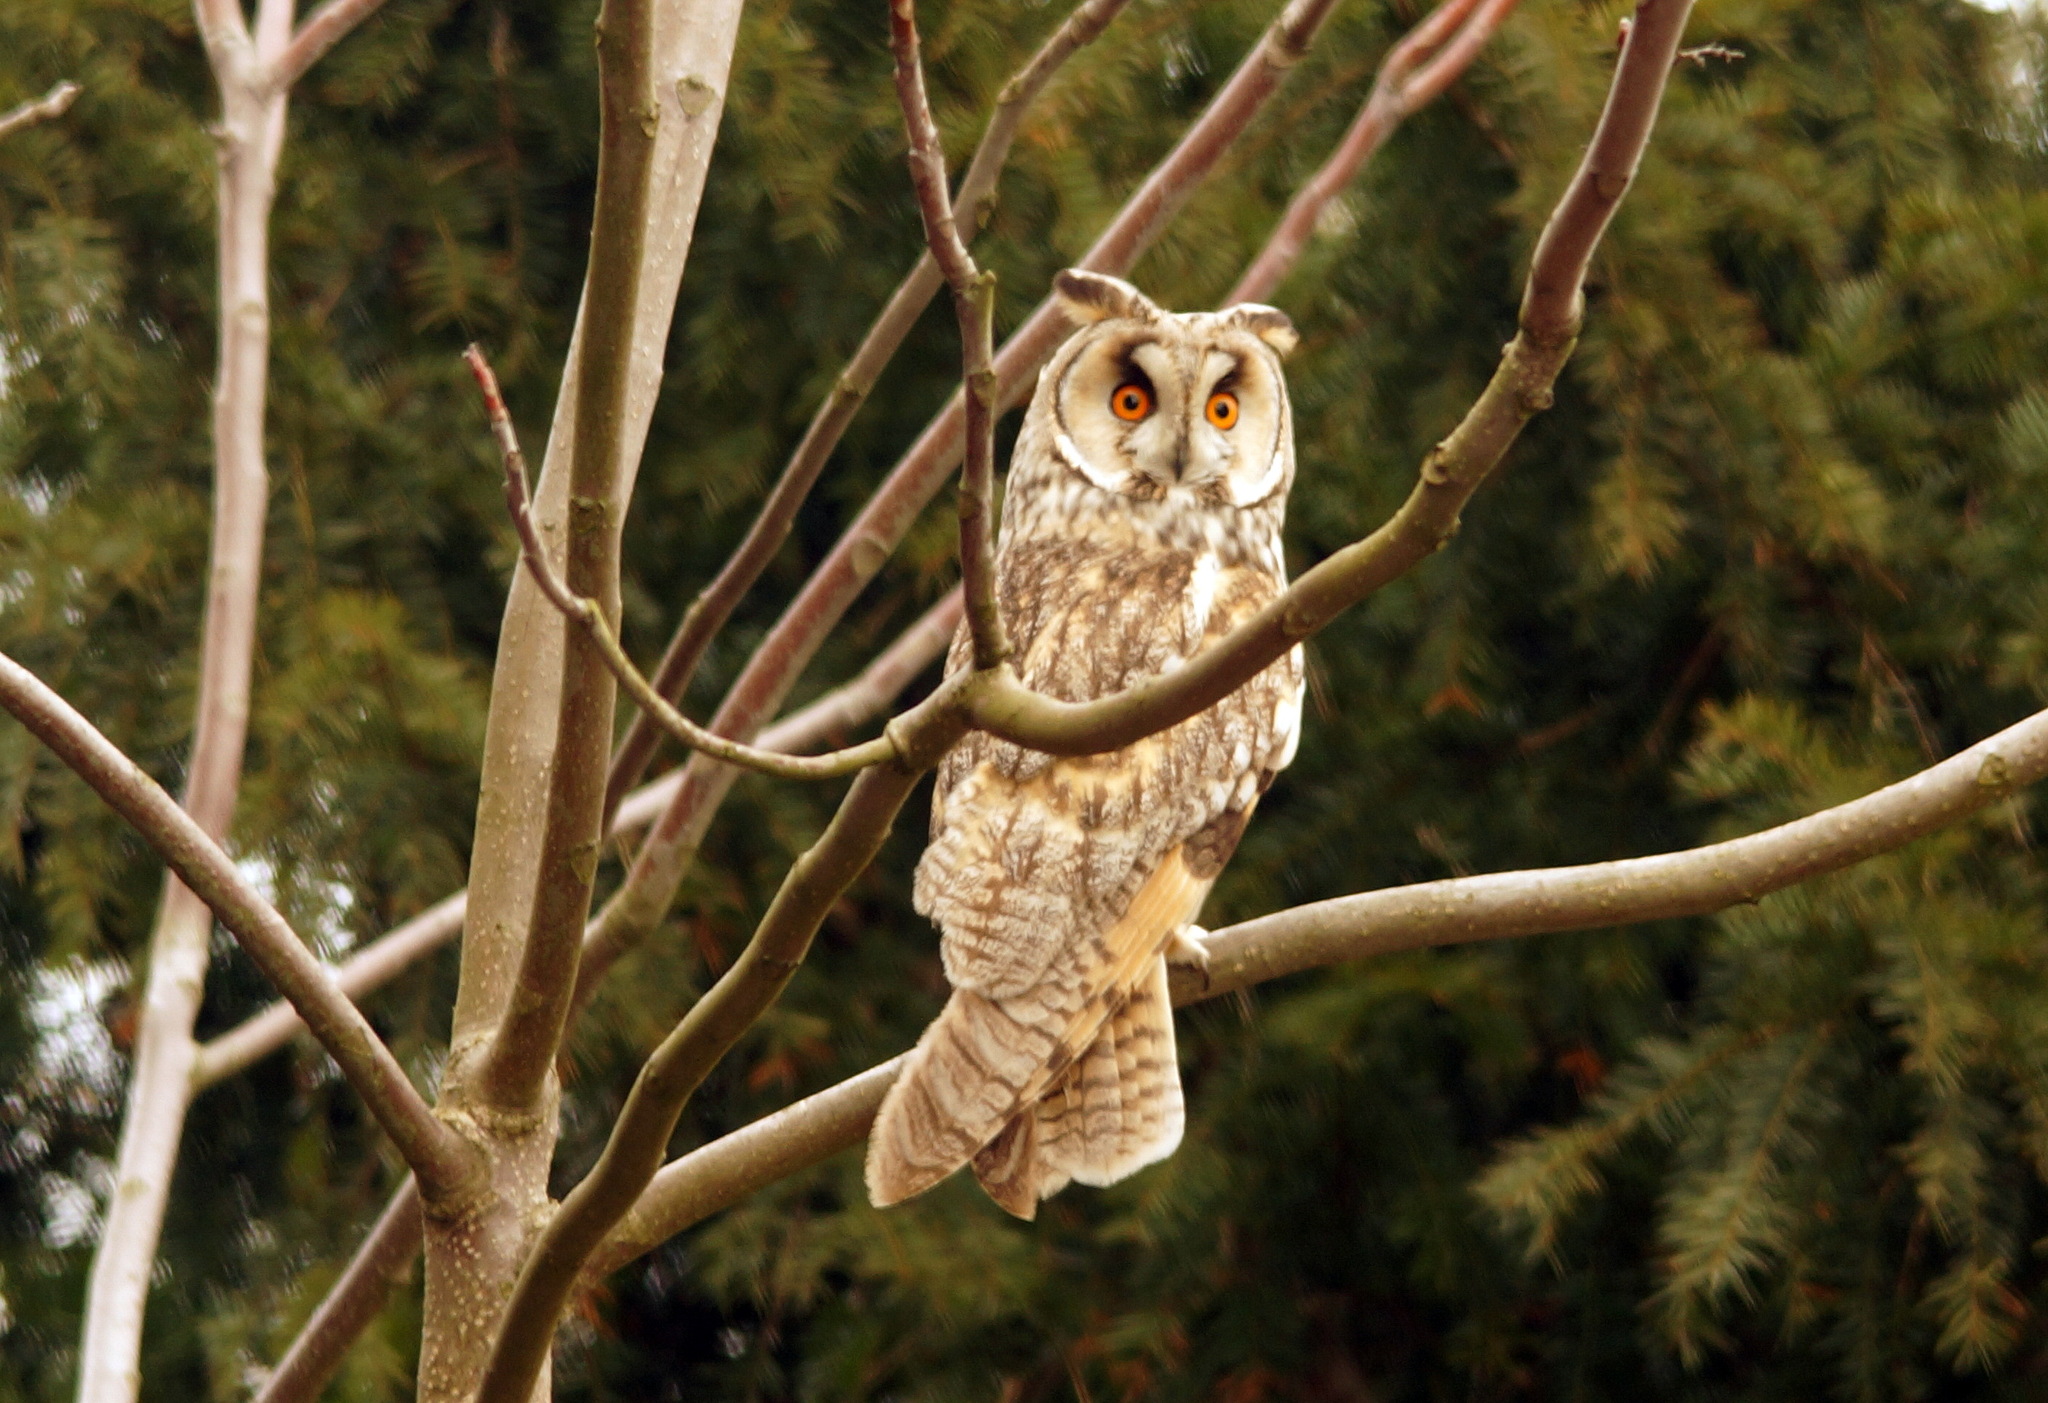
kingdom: Animalia
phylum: Chordata
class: Aves
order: Strigiformes
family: Strigidae
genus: Asio
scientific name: Asio otus
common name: Long-eared owl
